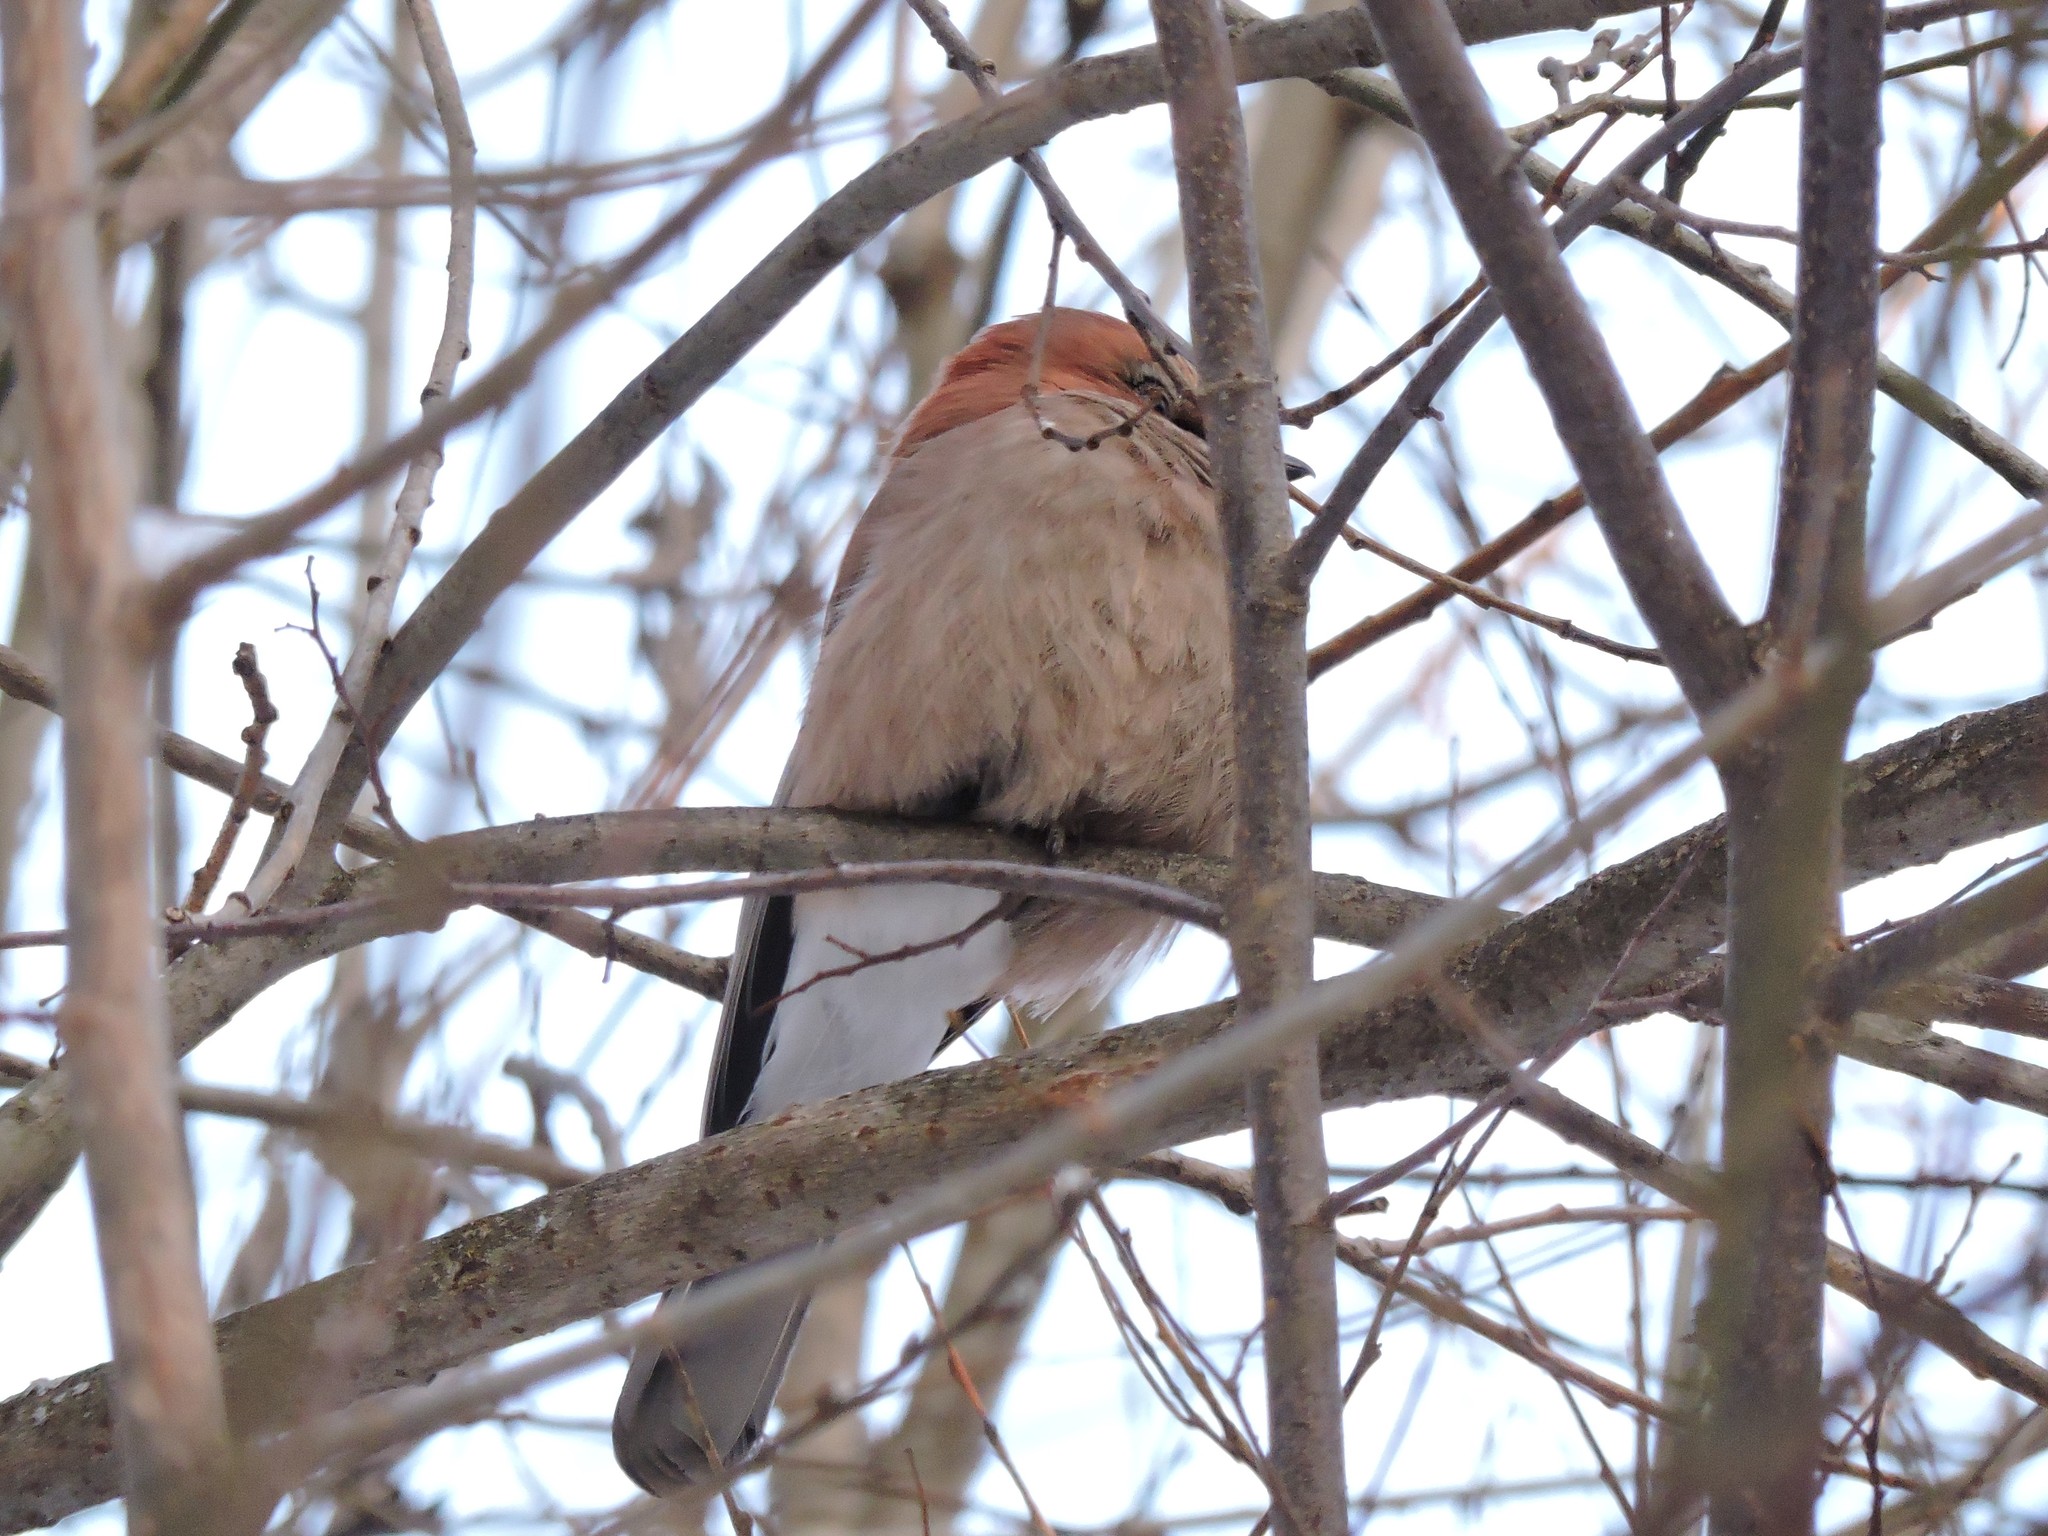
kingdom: Animalia
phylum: Chordata
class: Aves
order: Passeriformes
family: Corvidae
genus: Garrulus
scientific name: Garrulus glandarius
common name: Eurasian jay
